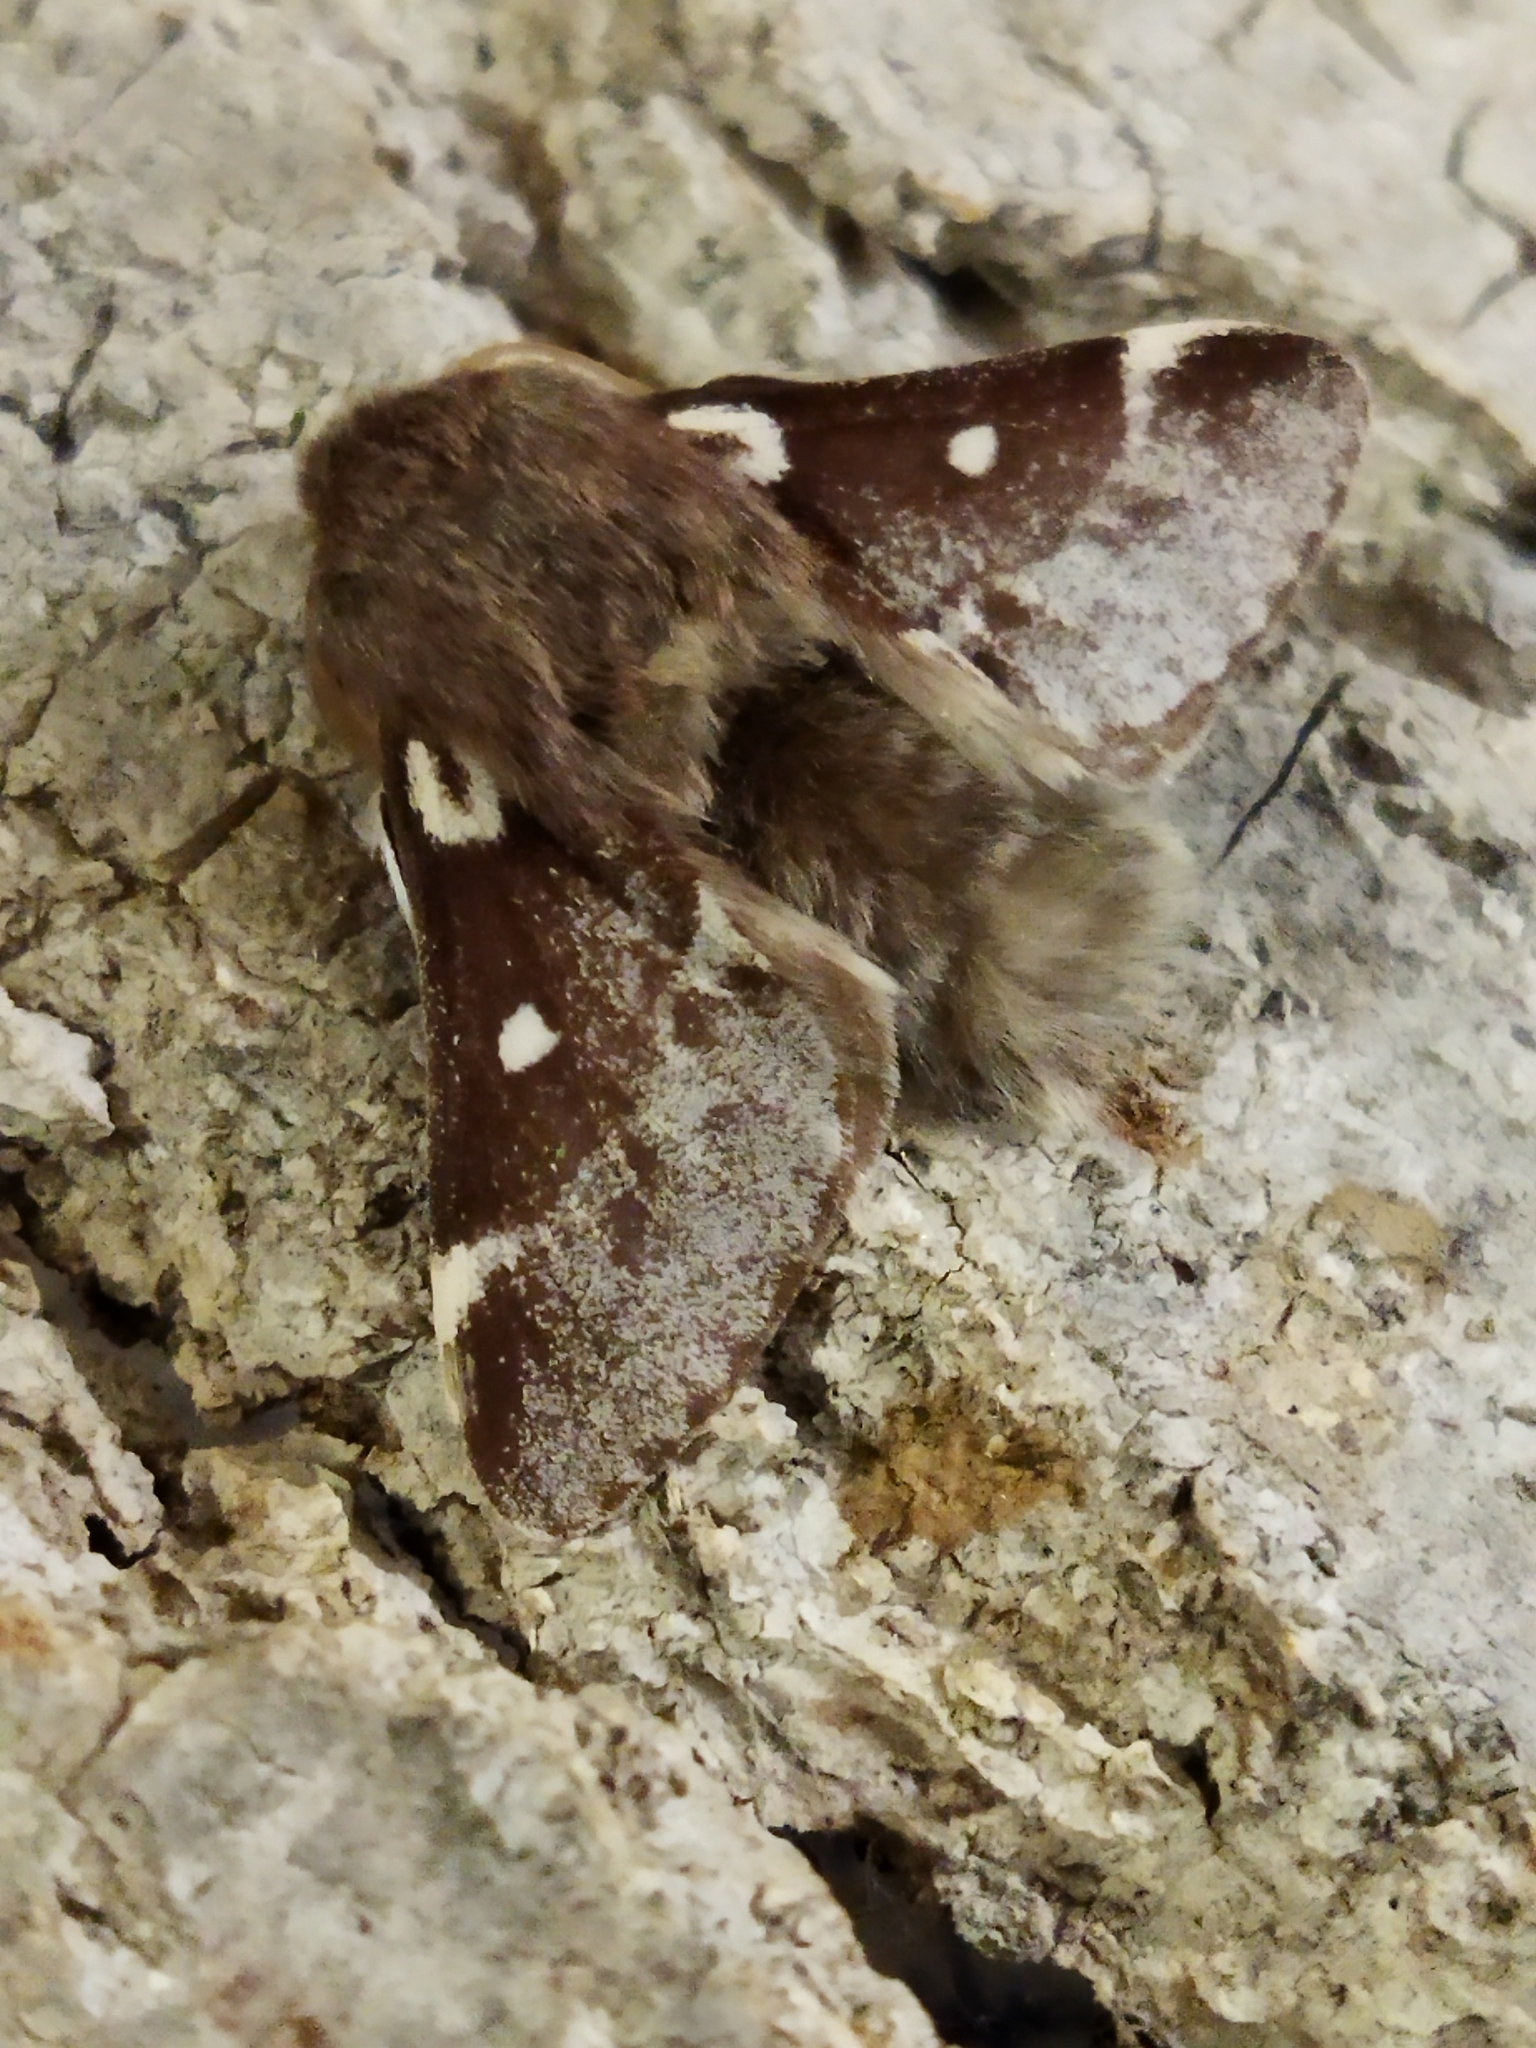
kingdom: Animalia
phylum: Arthropoda
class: Insecta
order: Lepidoptera
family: Lasiocampidae
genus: Eriogaster
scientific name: Eriogaster lanestris
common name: Small eggar
